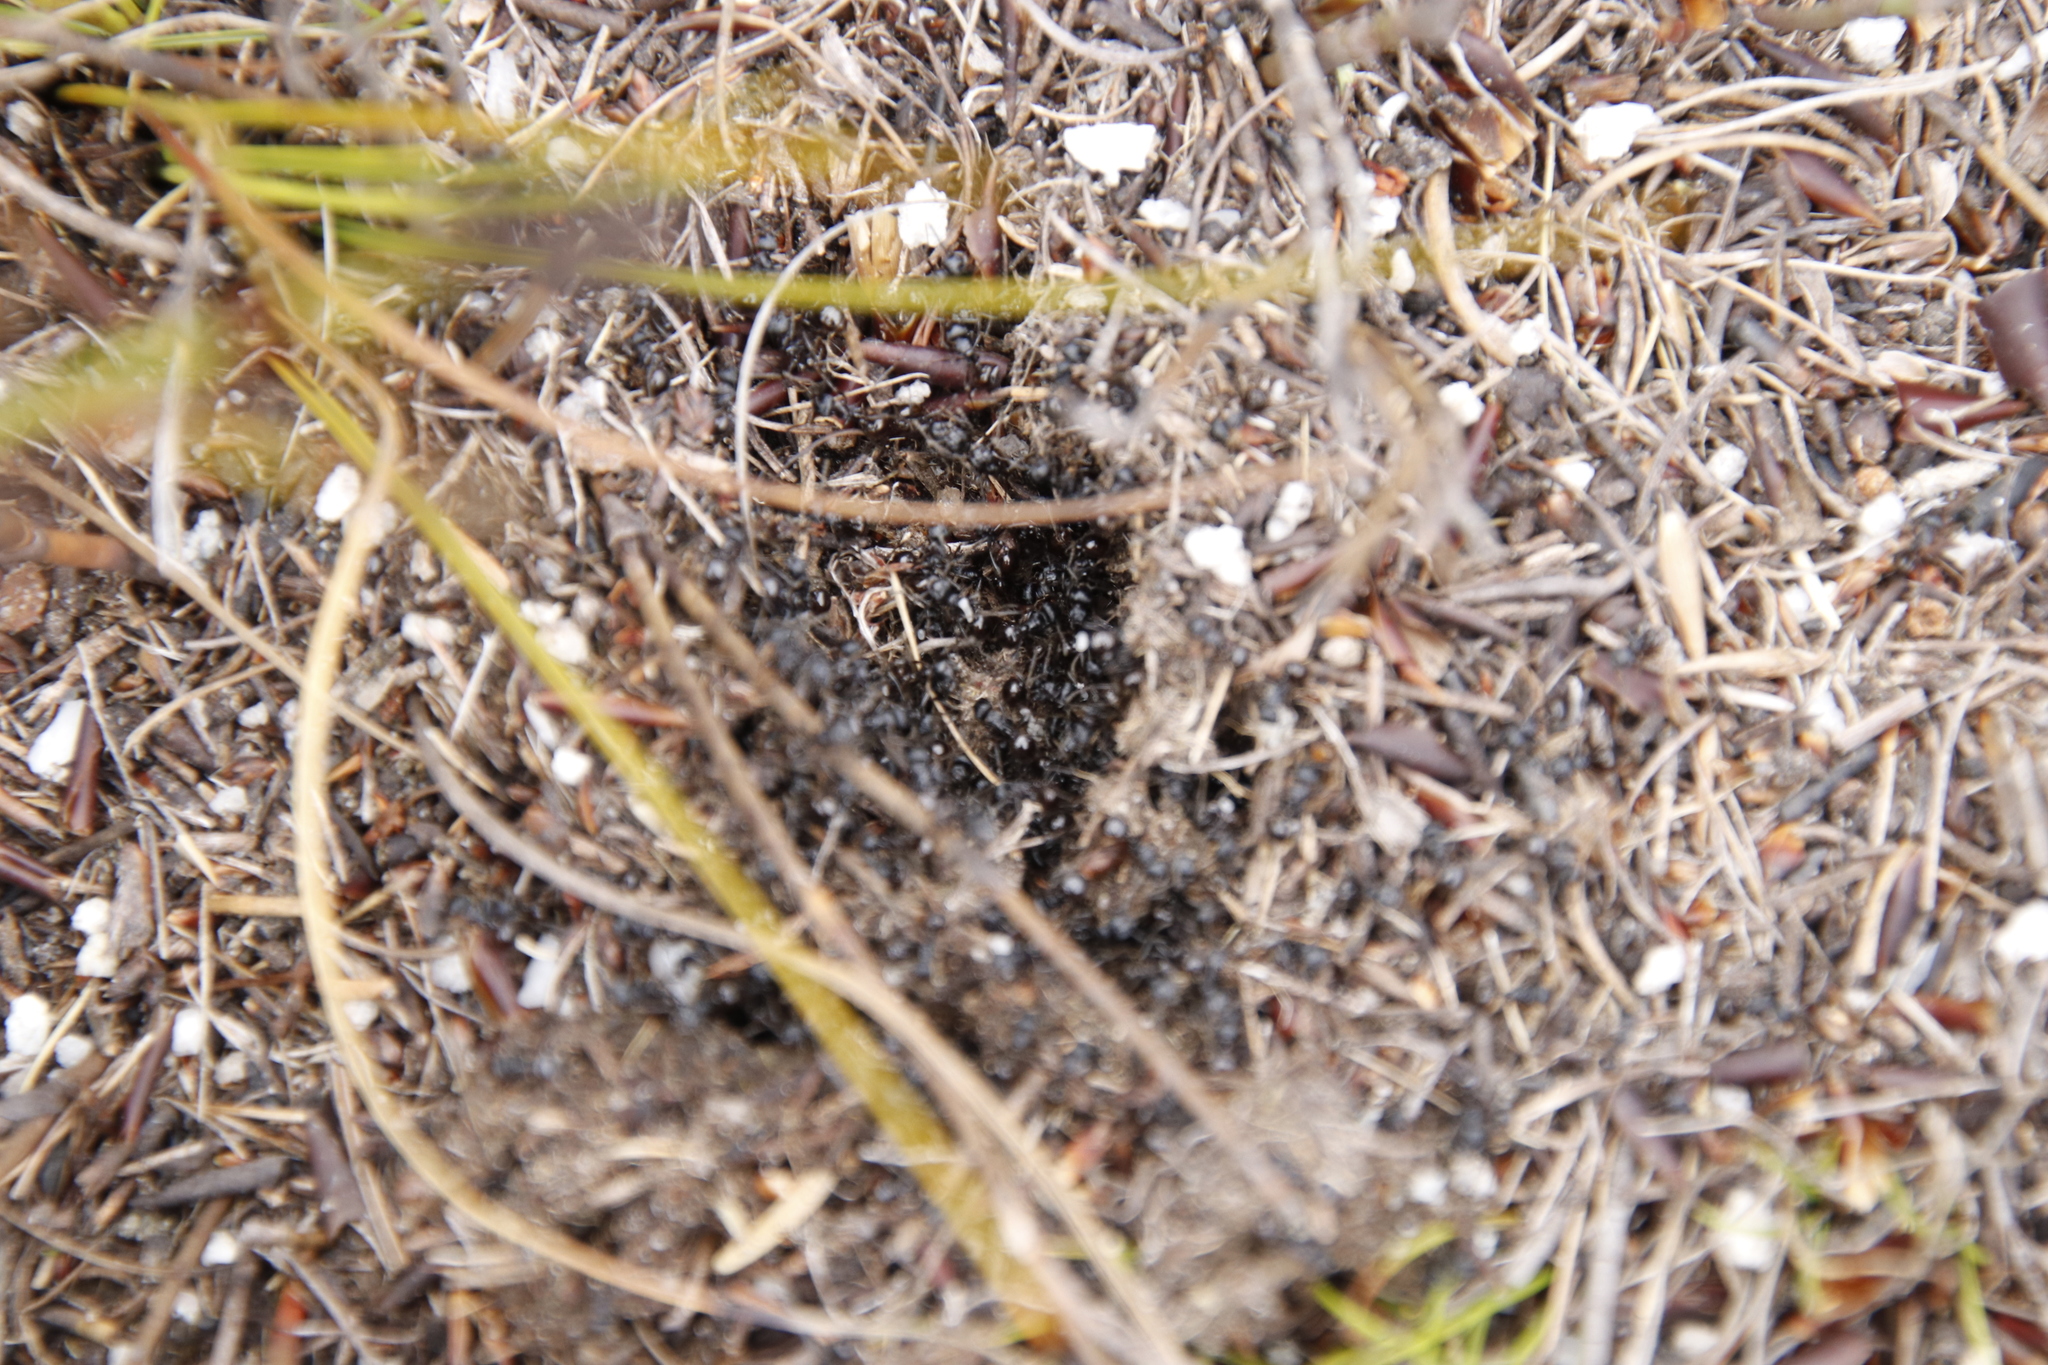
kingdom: Animalia
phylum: Arthropoda
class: Insecta
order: Hymenoptera
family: Formicidae
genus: Myrmicaria
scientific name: Myrmicaria nigra
